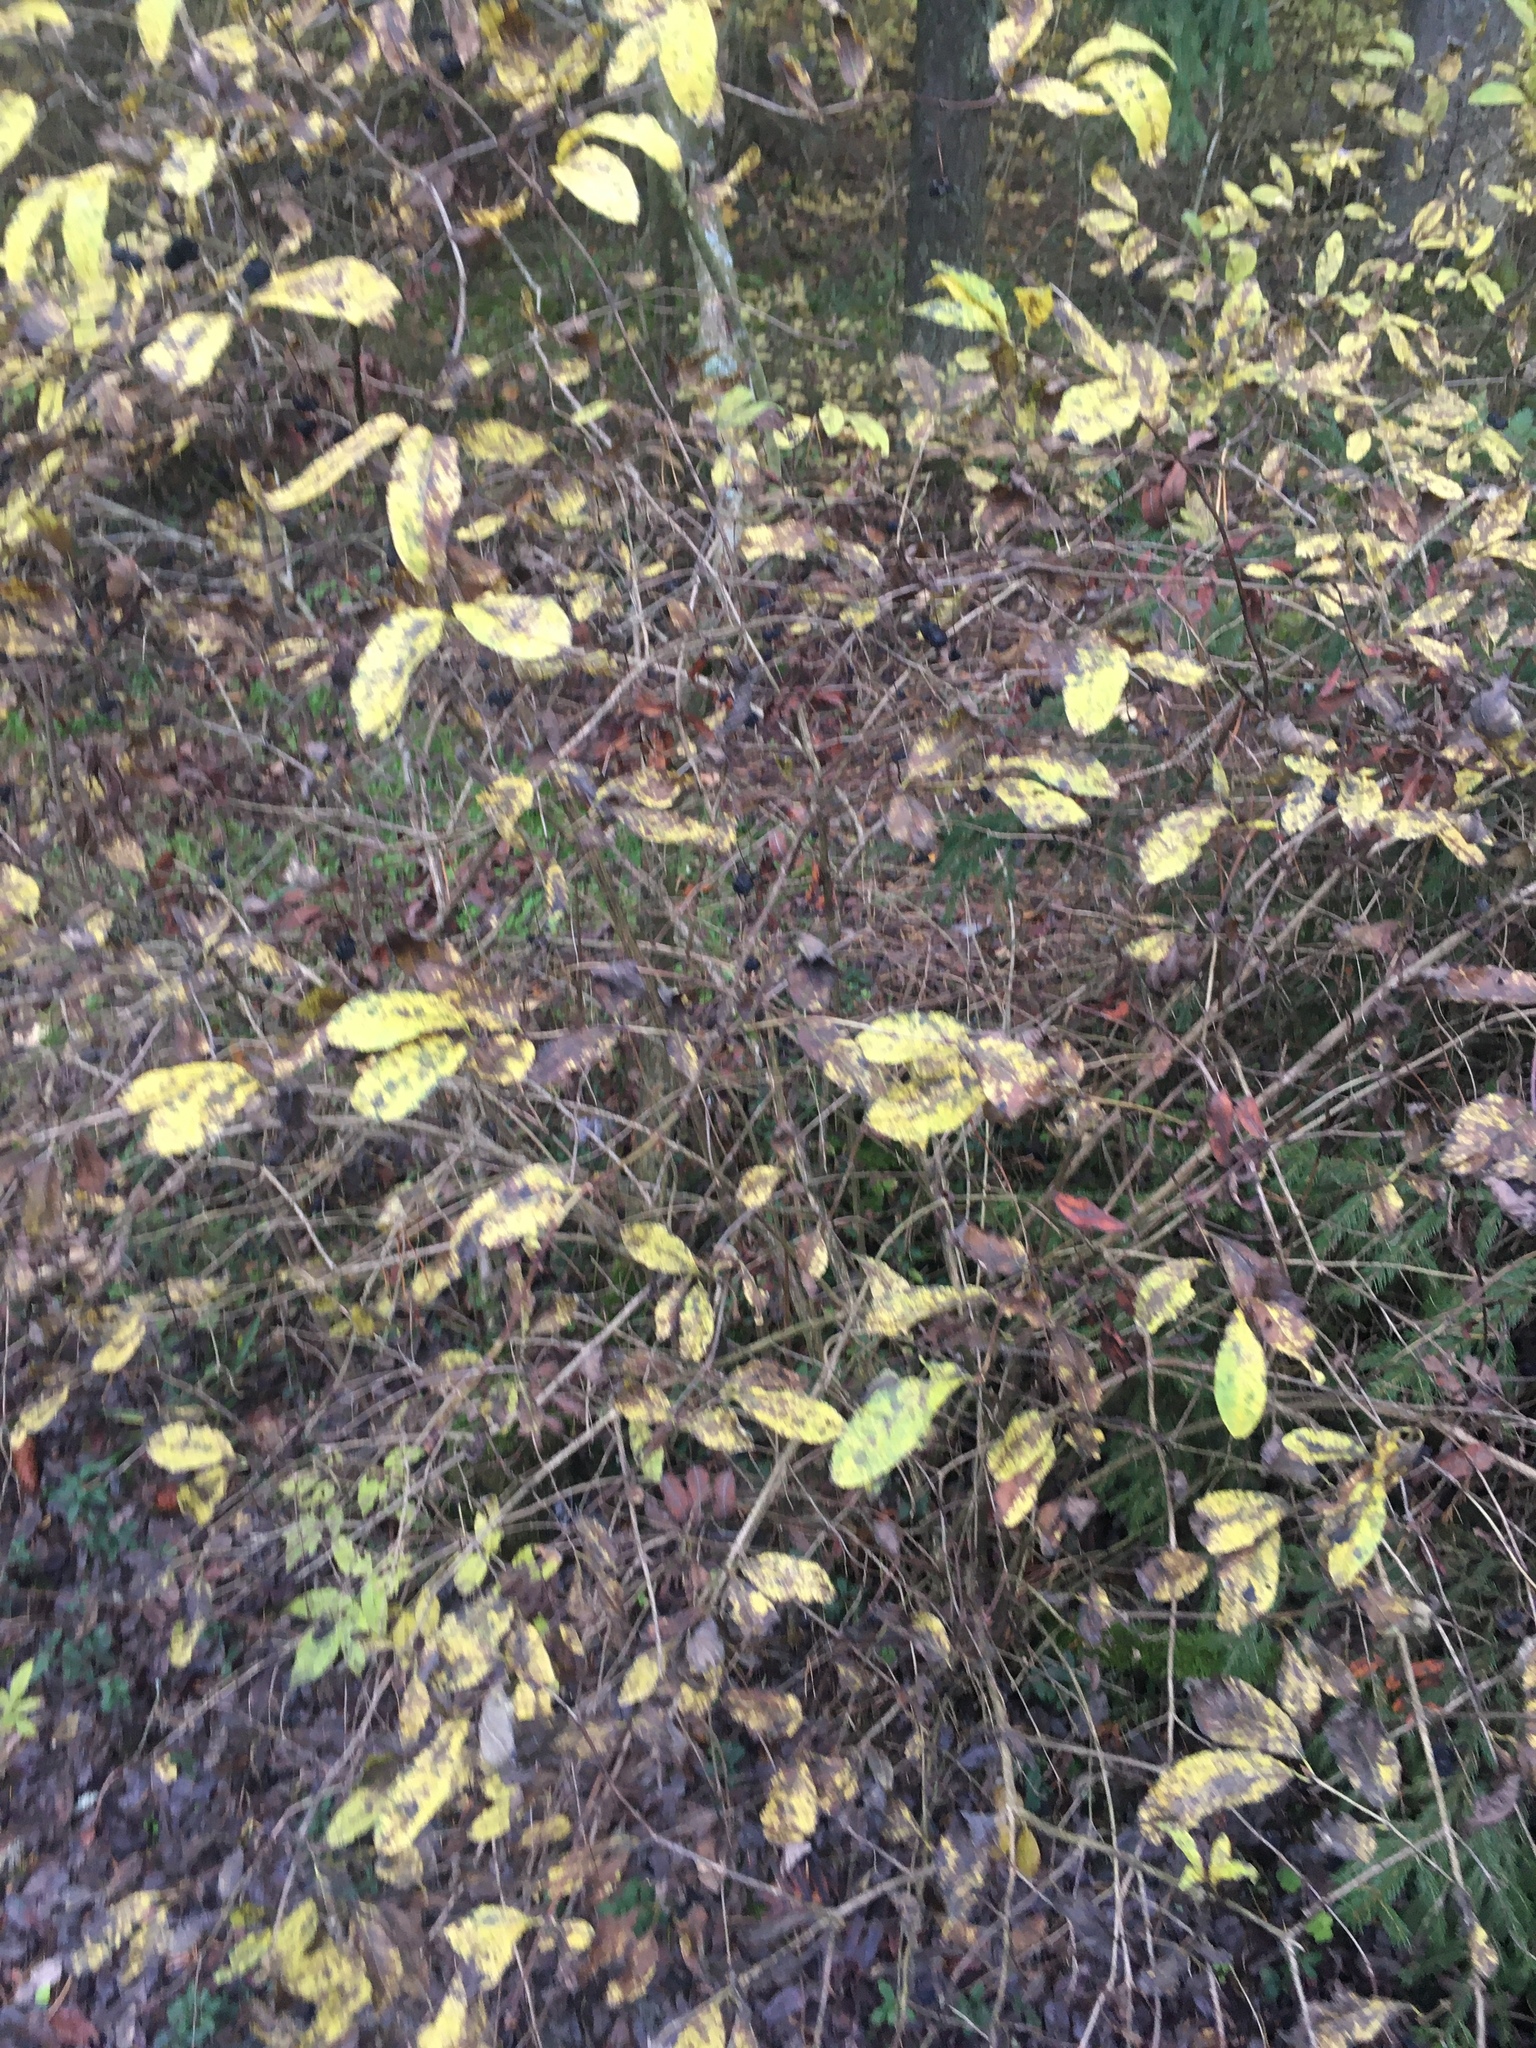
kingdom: Plantae
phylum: Tracheophyta
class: Magnoliopsida
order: Rosales
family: Rosaceae
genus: Prunus
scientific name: Prunus padus
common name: Bird cherry
